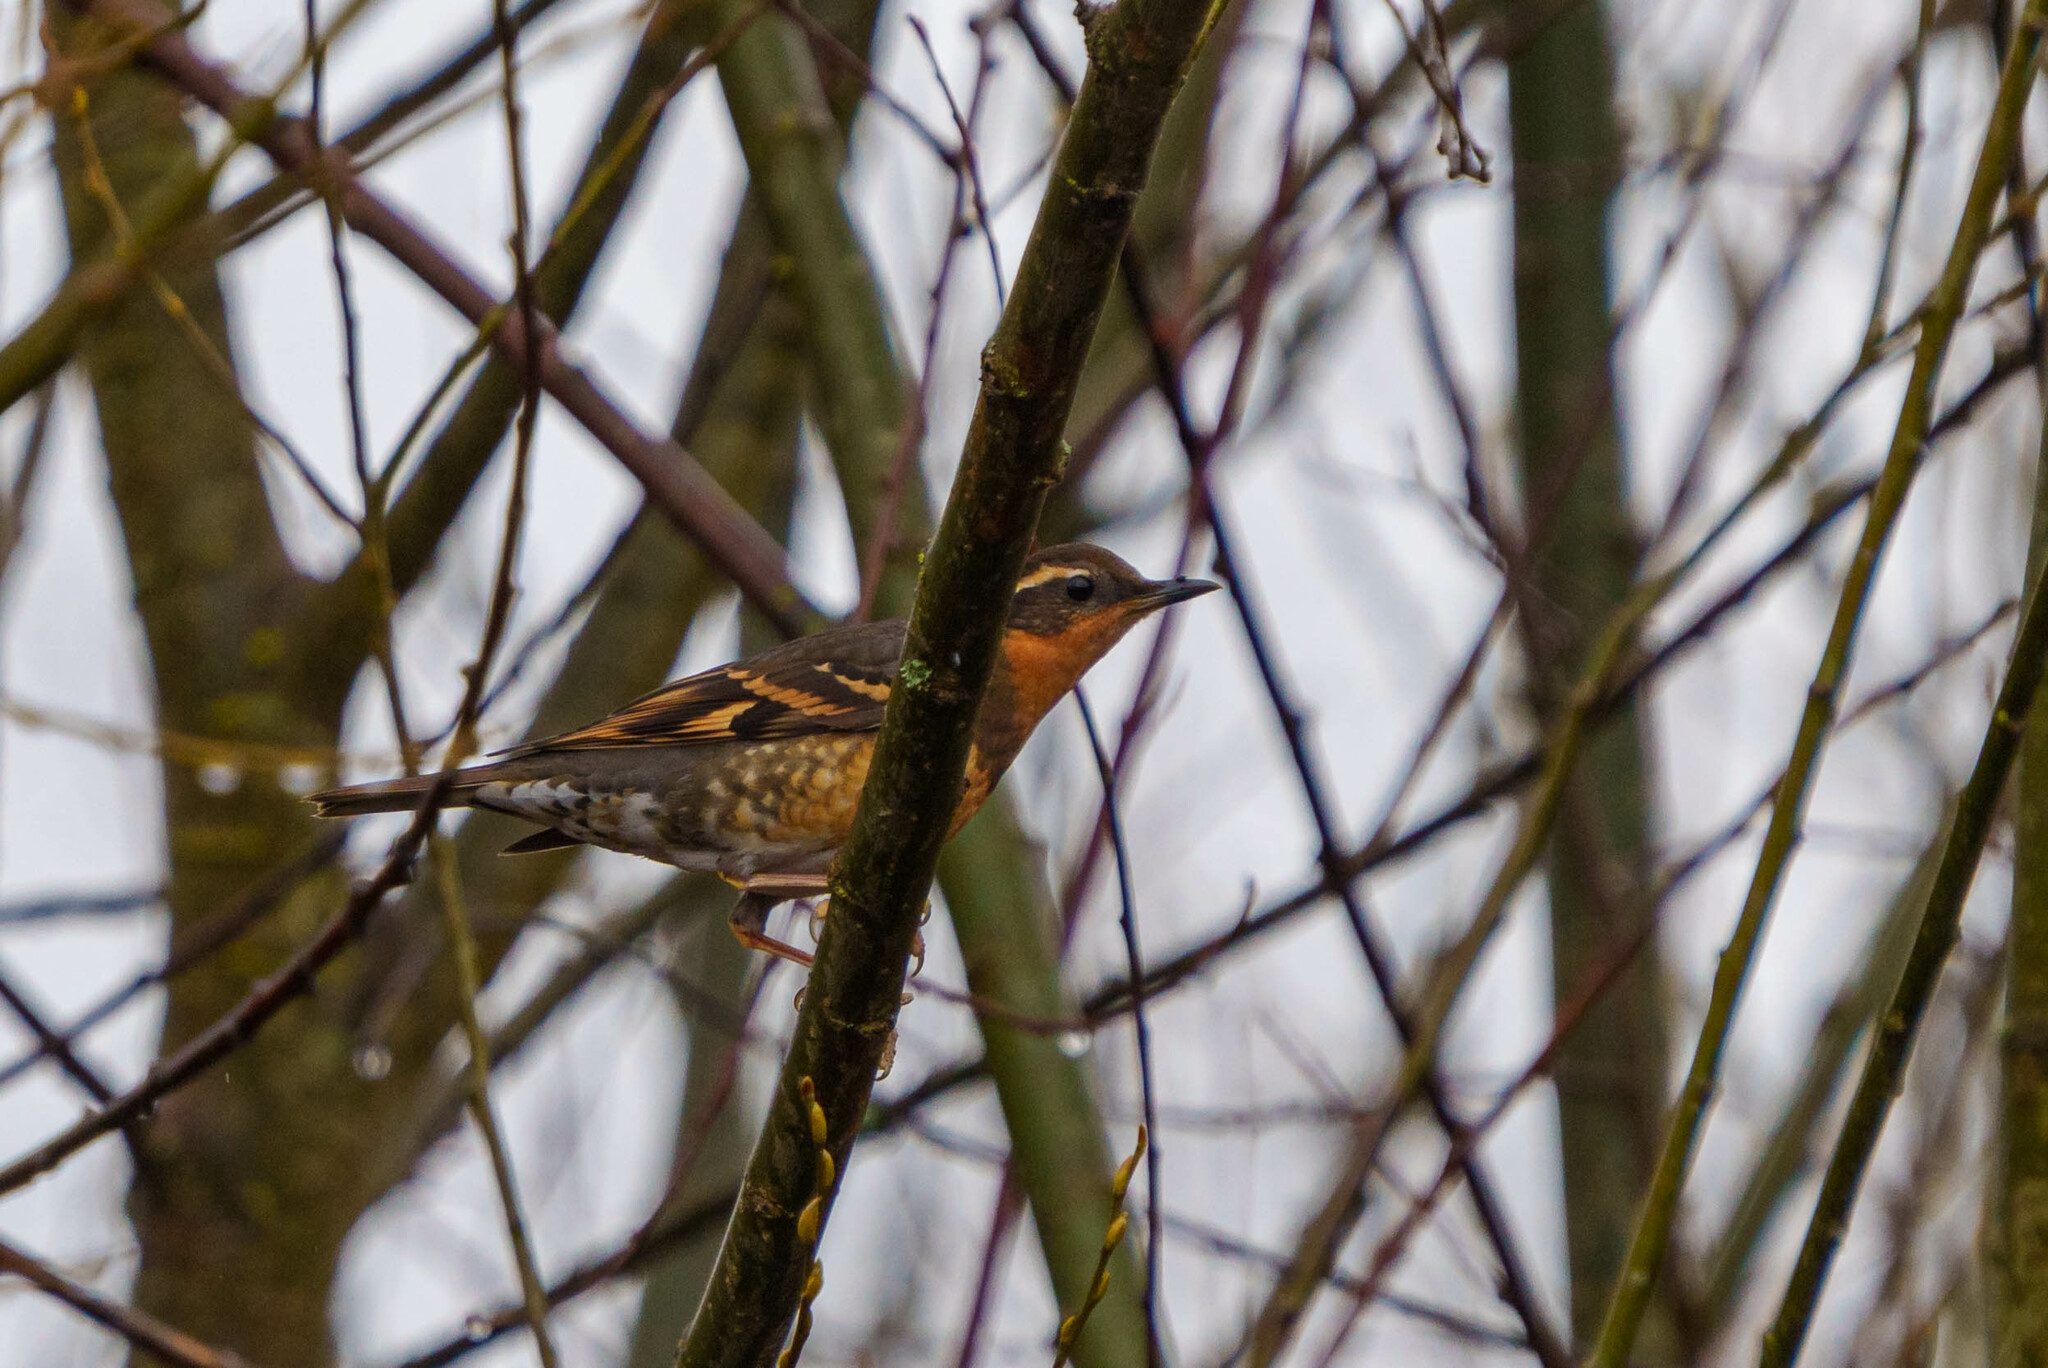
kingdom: Animalia
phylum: Chordata
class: Aves
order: Passeriformes
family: Turdidae
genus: Ixoreus
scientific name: Ixoreus naevius
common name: Varied thrush
